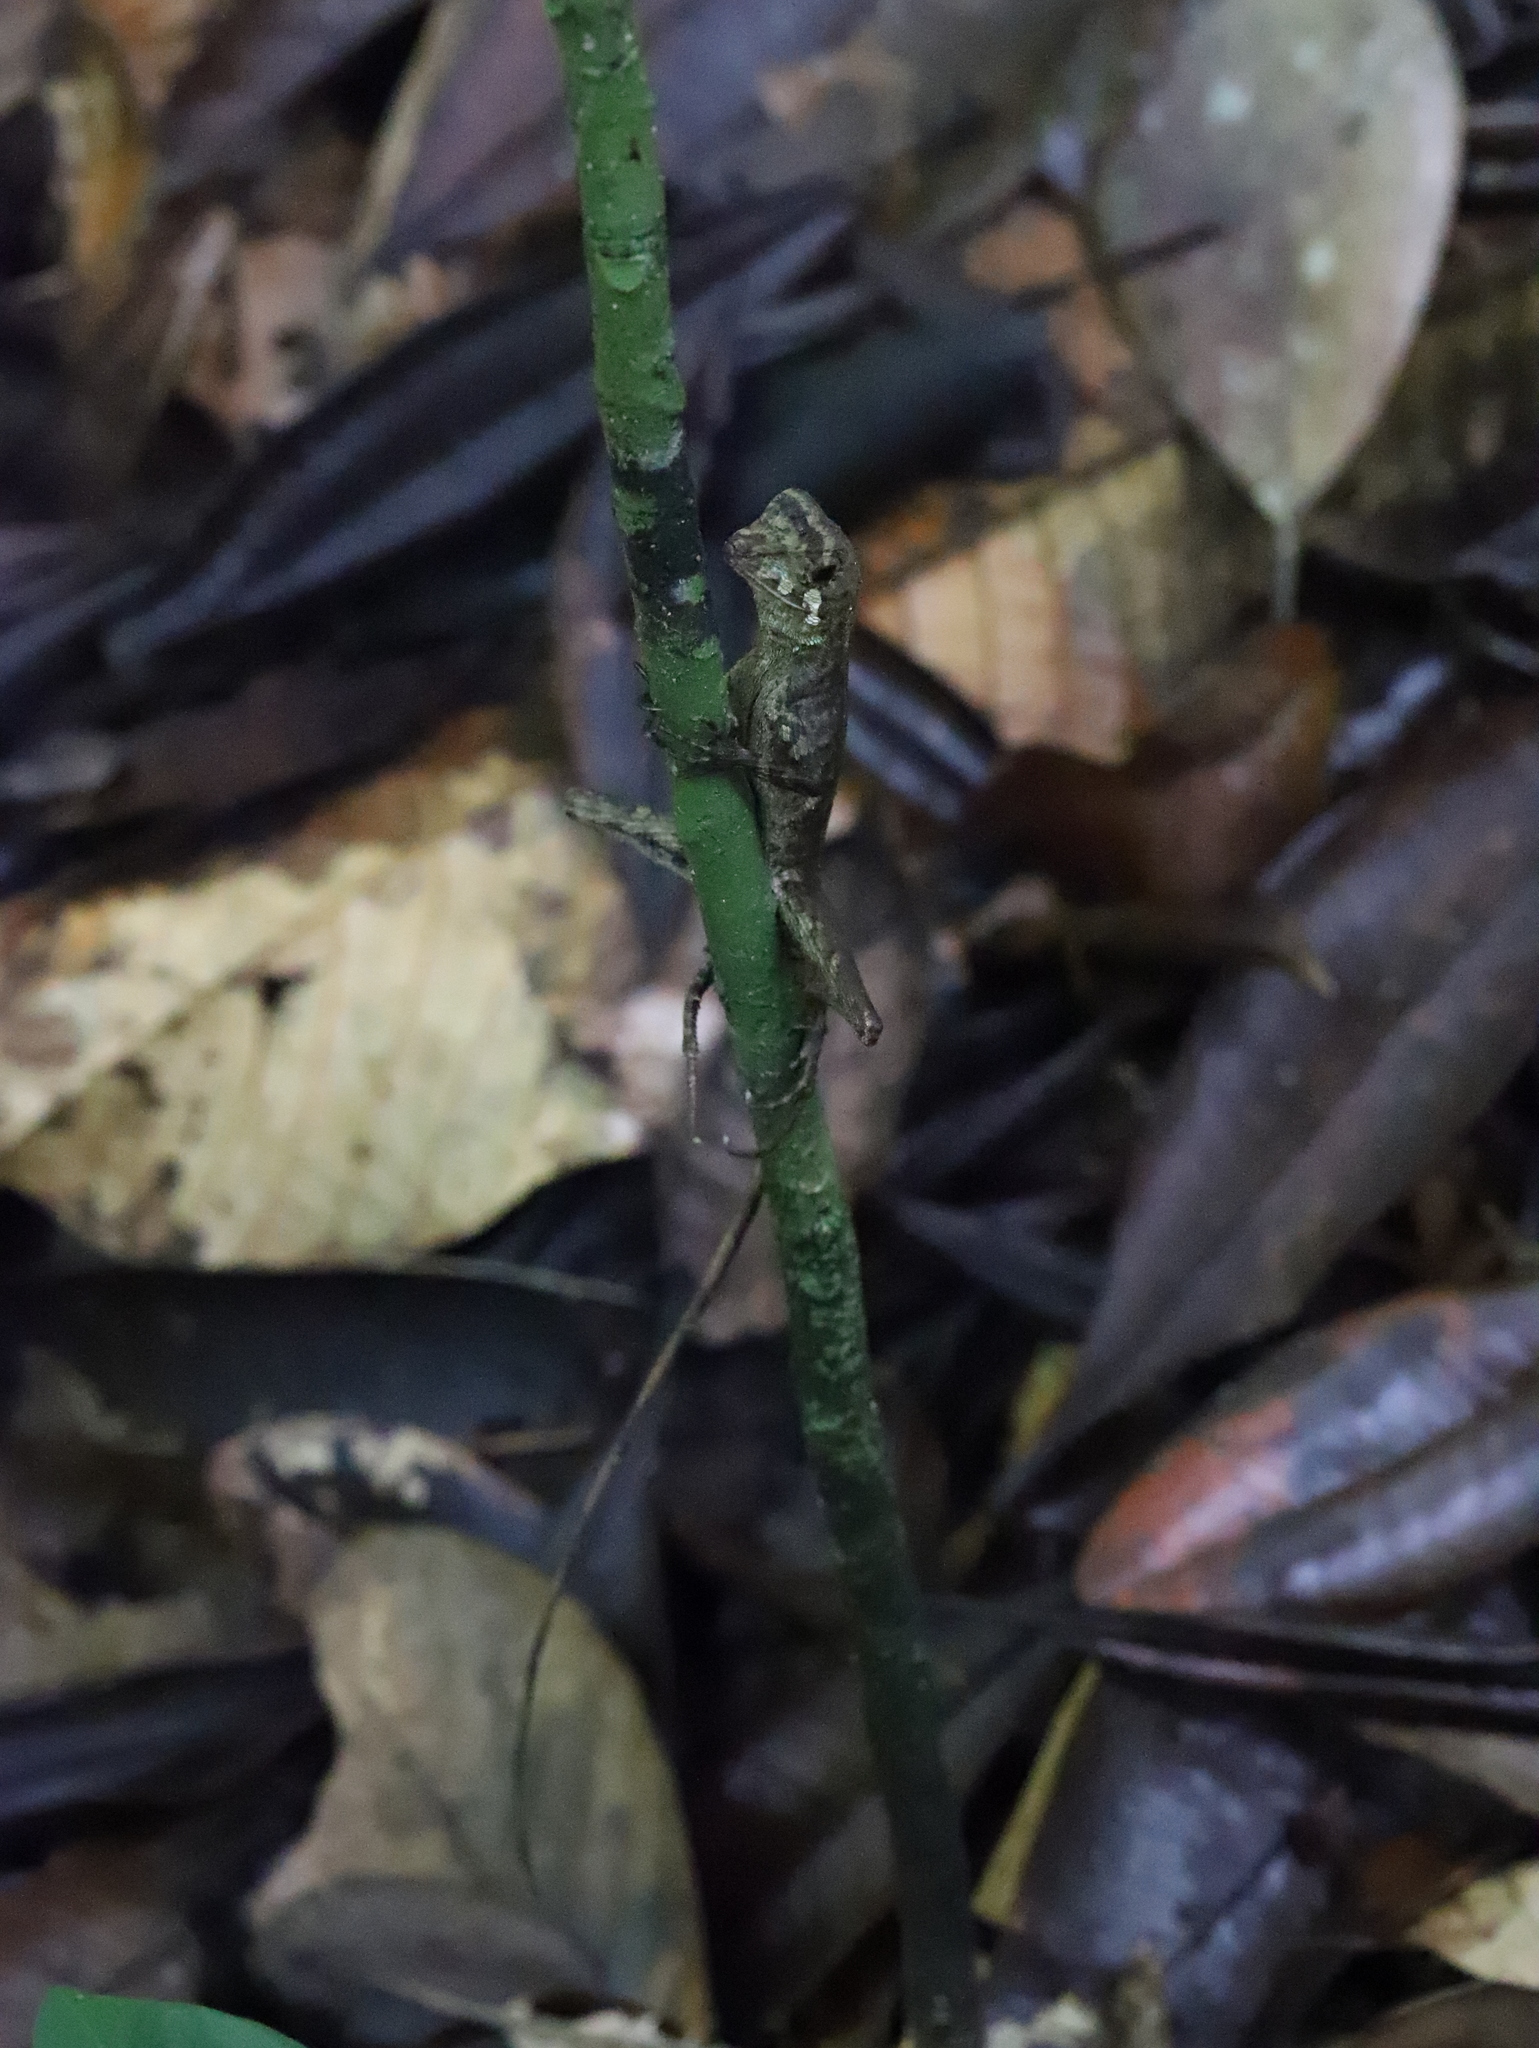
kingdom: Animalia
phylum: Chordata
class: Squamata
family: Agamidae
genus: Otocryptis
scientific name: Otocryptis wiegmanni
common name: Wiegmann's agama
